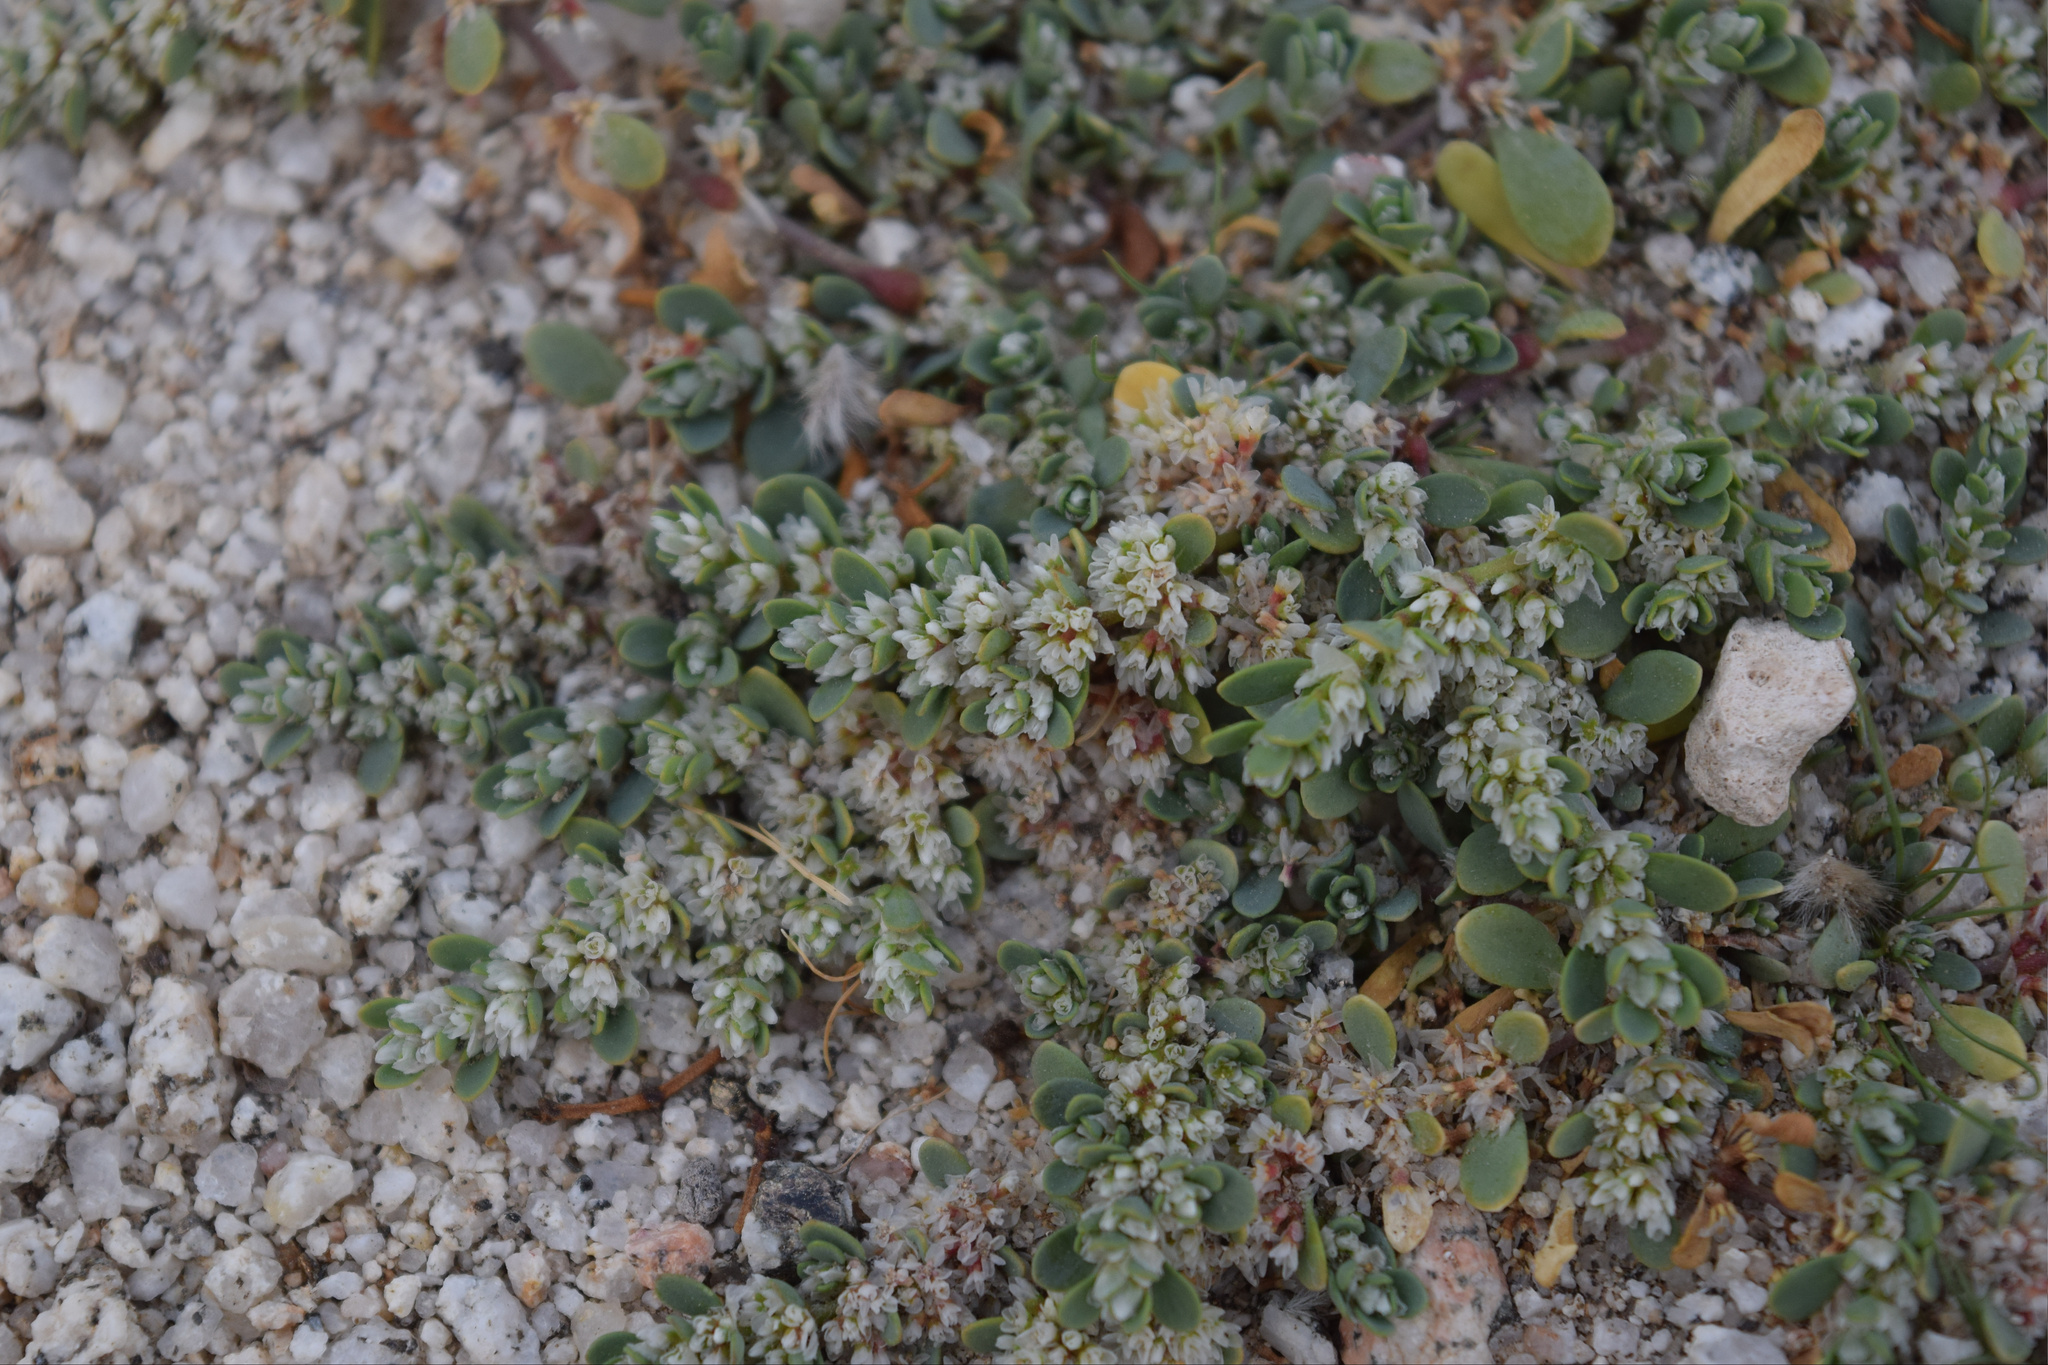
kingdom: Plantae
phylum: Tracheophyta
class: Magnoliopsida
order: Caryophyllales
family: Caryophyllaceae
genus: Achyronychia
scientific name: Achyronychia cooperi
